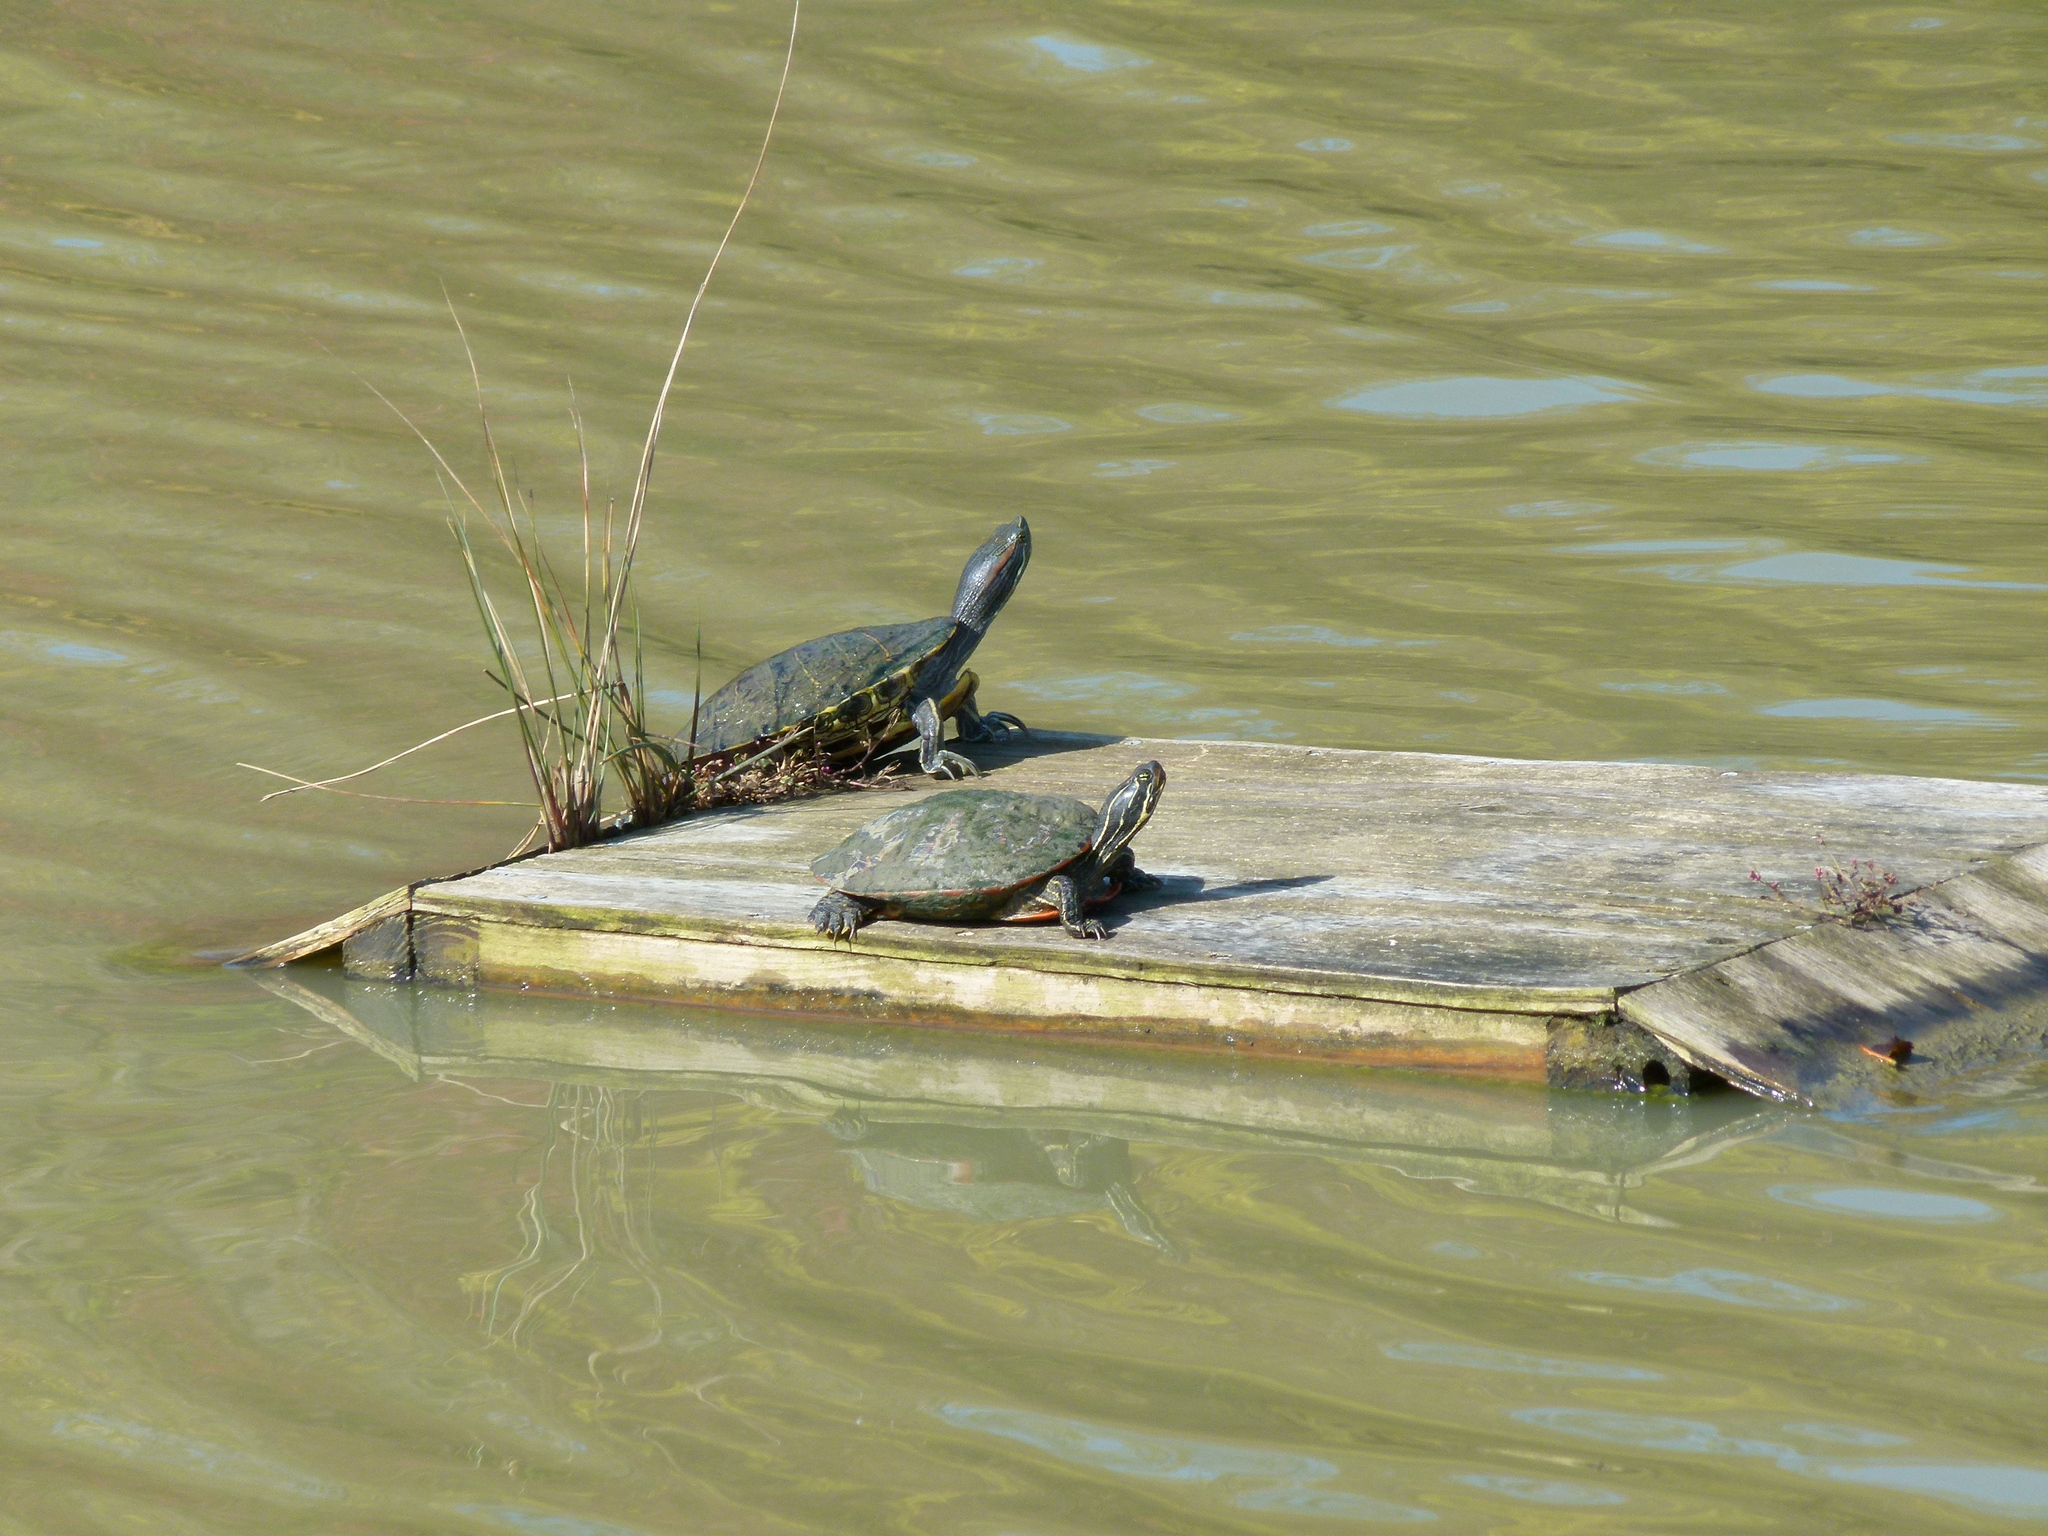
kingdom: Animalia
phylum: Chordata
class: Testudines
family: Emydidae
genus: Trachemys
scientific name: Trachemys scripta
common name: Slider
